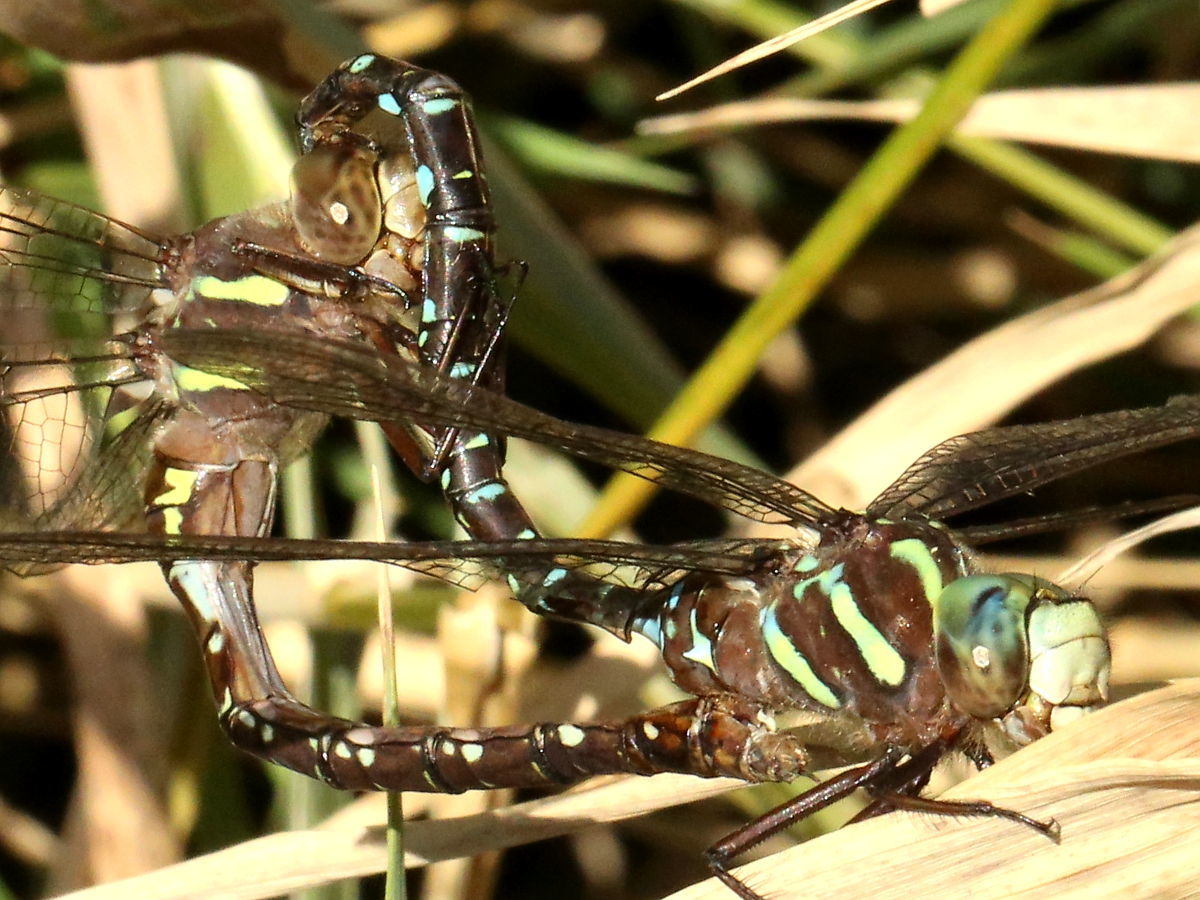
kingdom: Animalia
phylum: Arthropoda
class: Insecta
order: Odonata
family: Aeshnidae
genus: Aeshna
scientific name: Aeshna umbrosa
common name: Shadow darner
